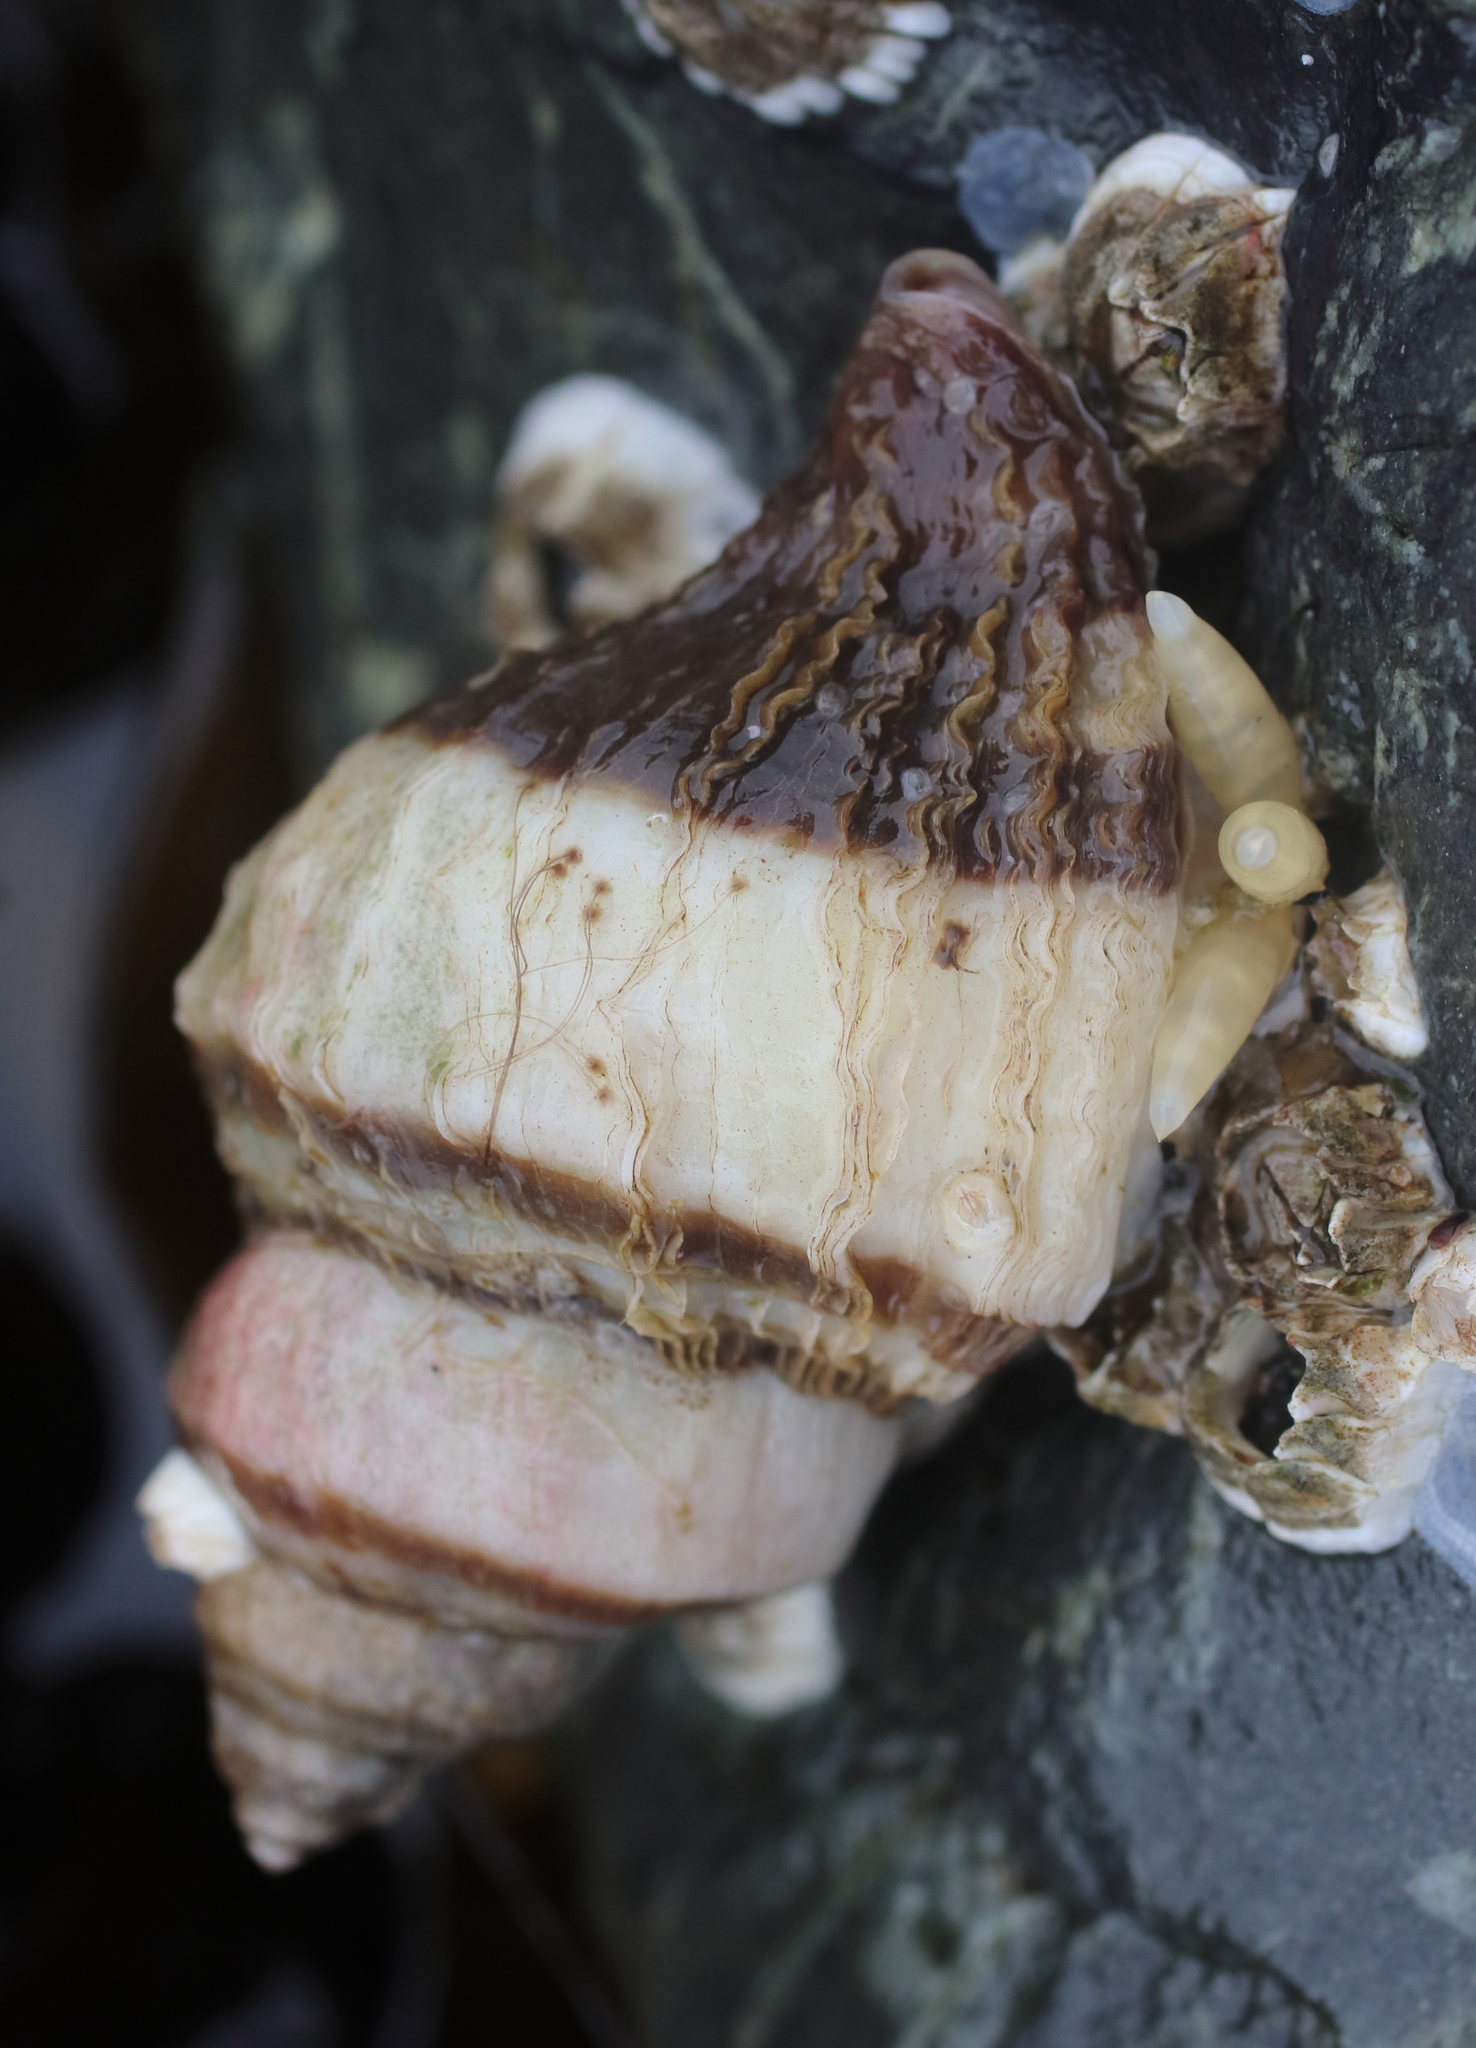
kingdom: Animalia
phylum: Mollusca
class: Gastropoda
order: Neogastropoda
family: Muricidae
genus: Nucella
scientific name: Nucella lamellosa
